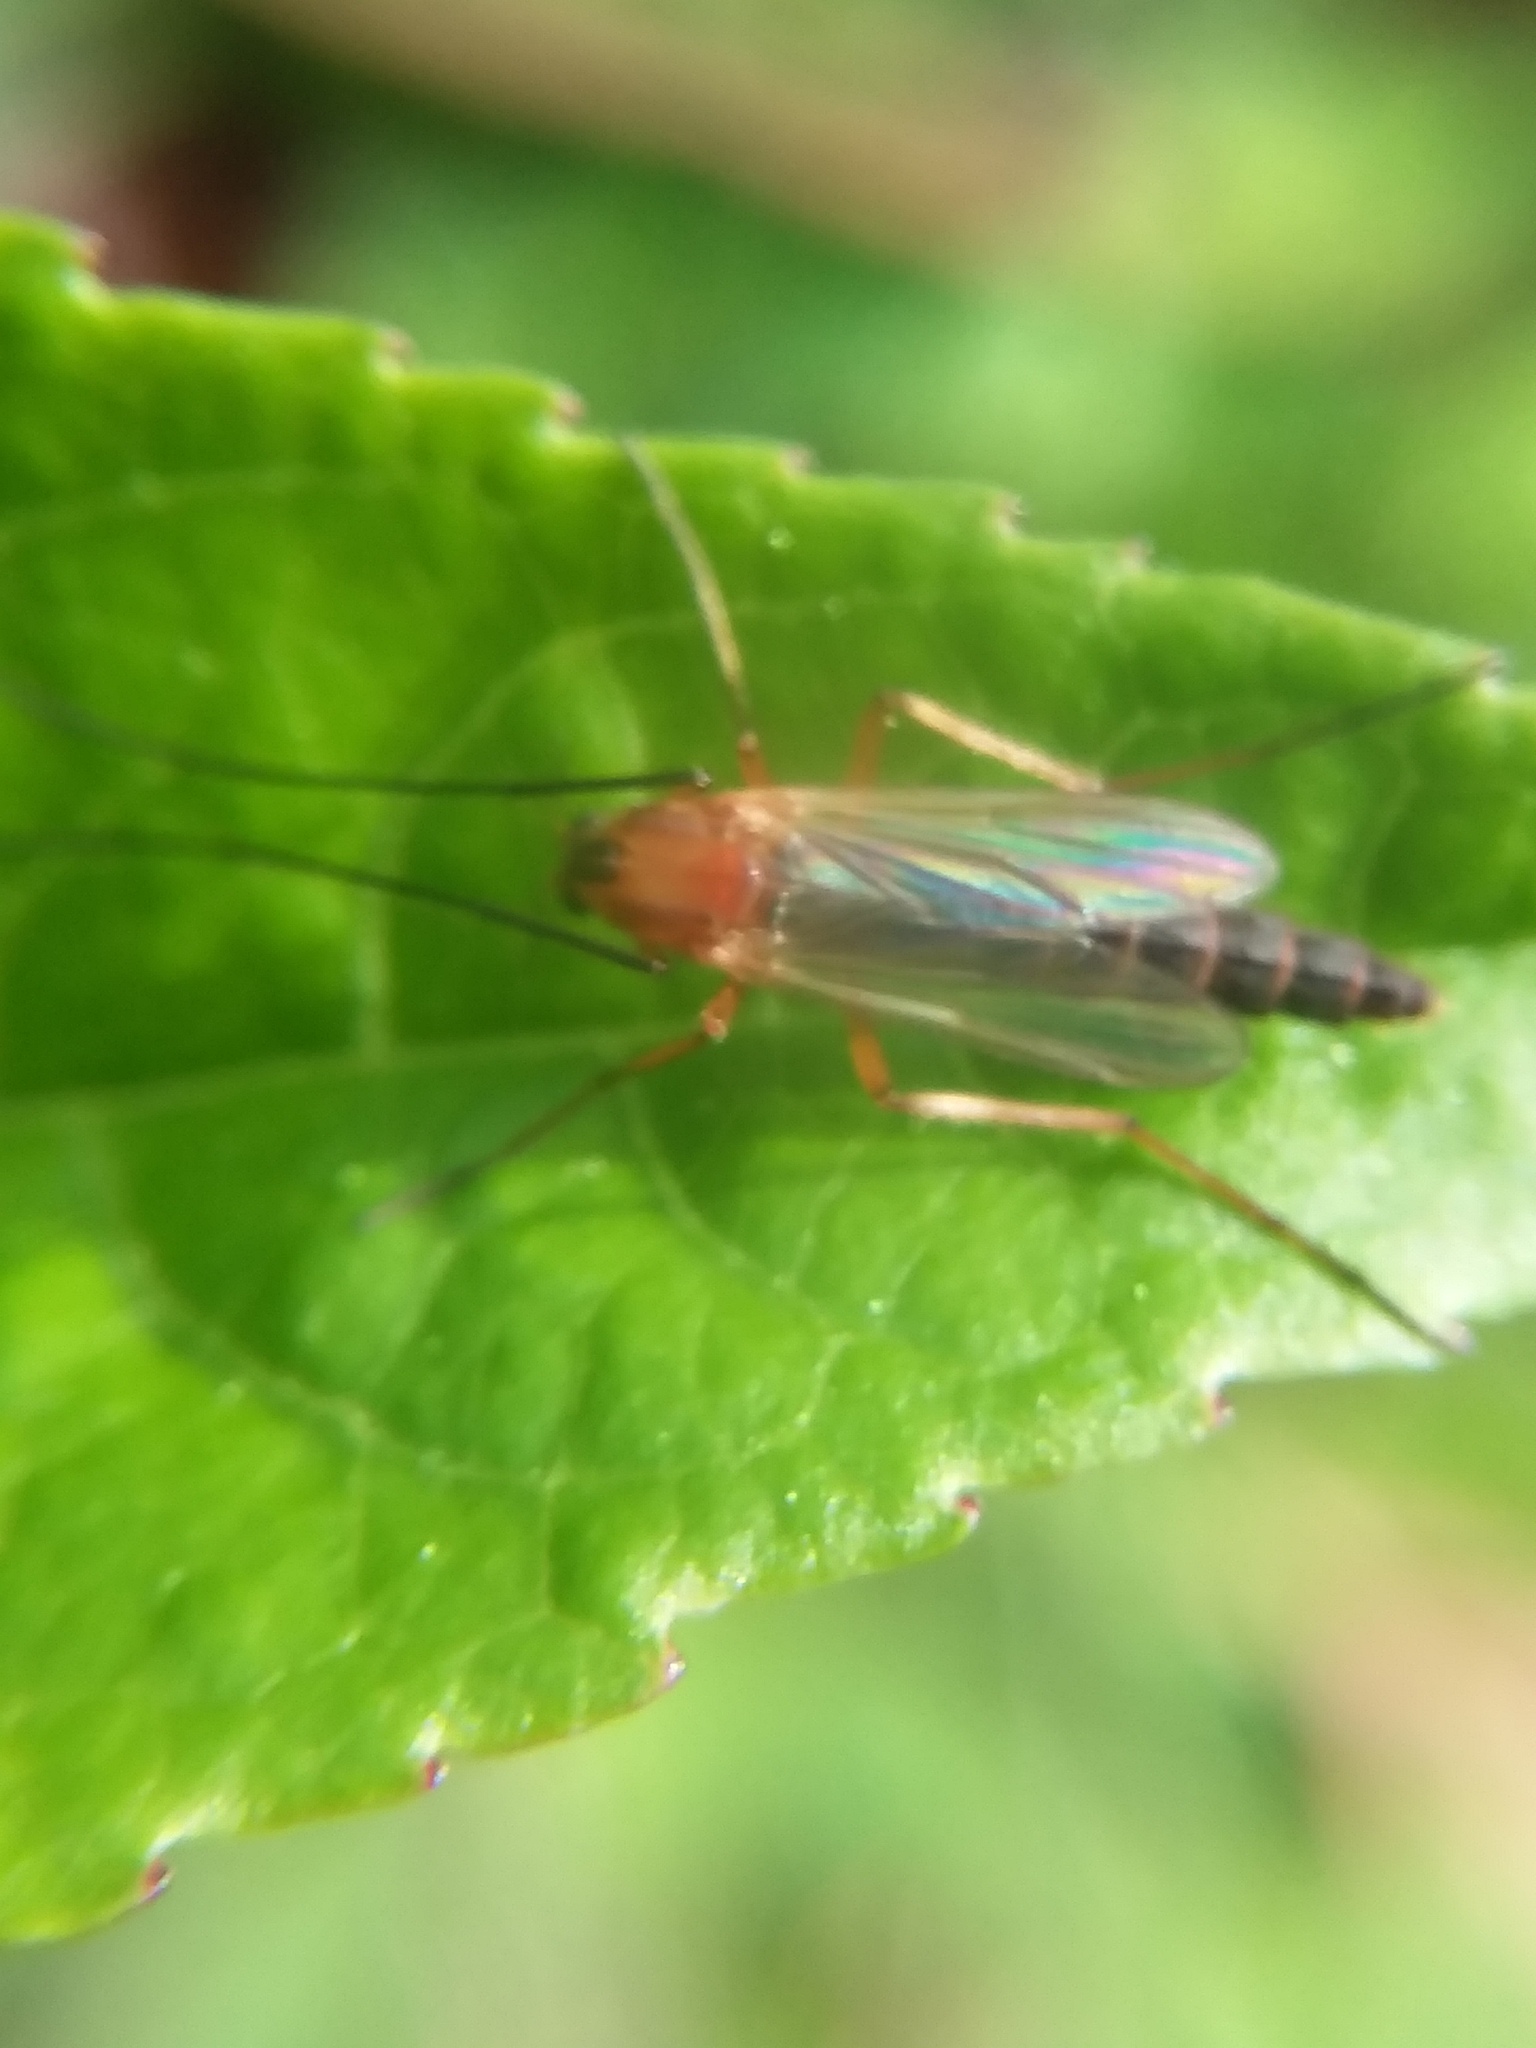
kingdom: Animalia
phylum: Arthropoda
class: Insecta
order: Diptera
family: Chironomidae
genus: Chironomus
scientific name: Chironomus ochreatus
